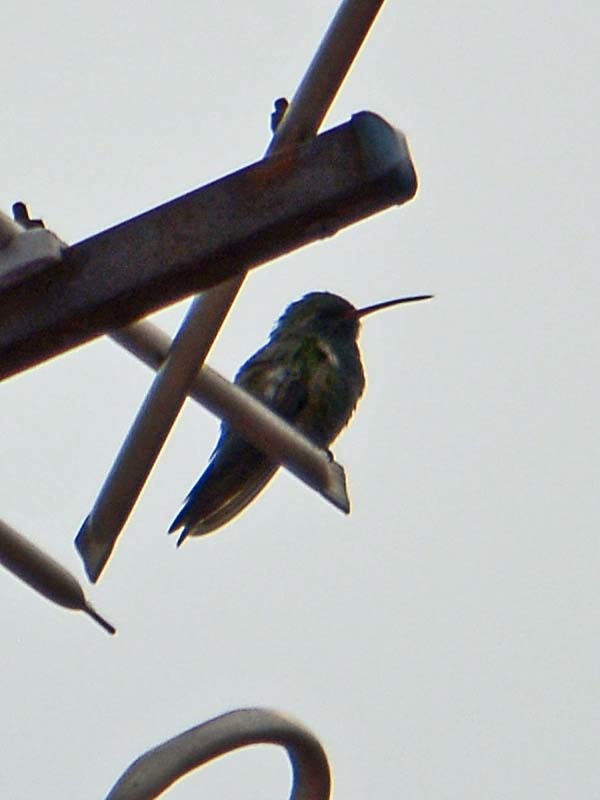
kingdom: Animalia
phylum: Chordata
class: Aves
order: Apodiformes
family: Trochilidae
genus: Cynanthus
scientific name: Cynanthus latirostris
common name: Broad-billed hummingbird
